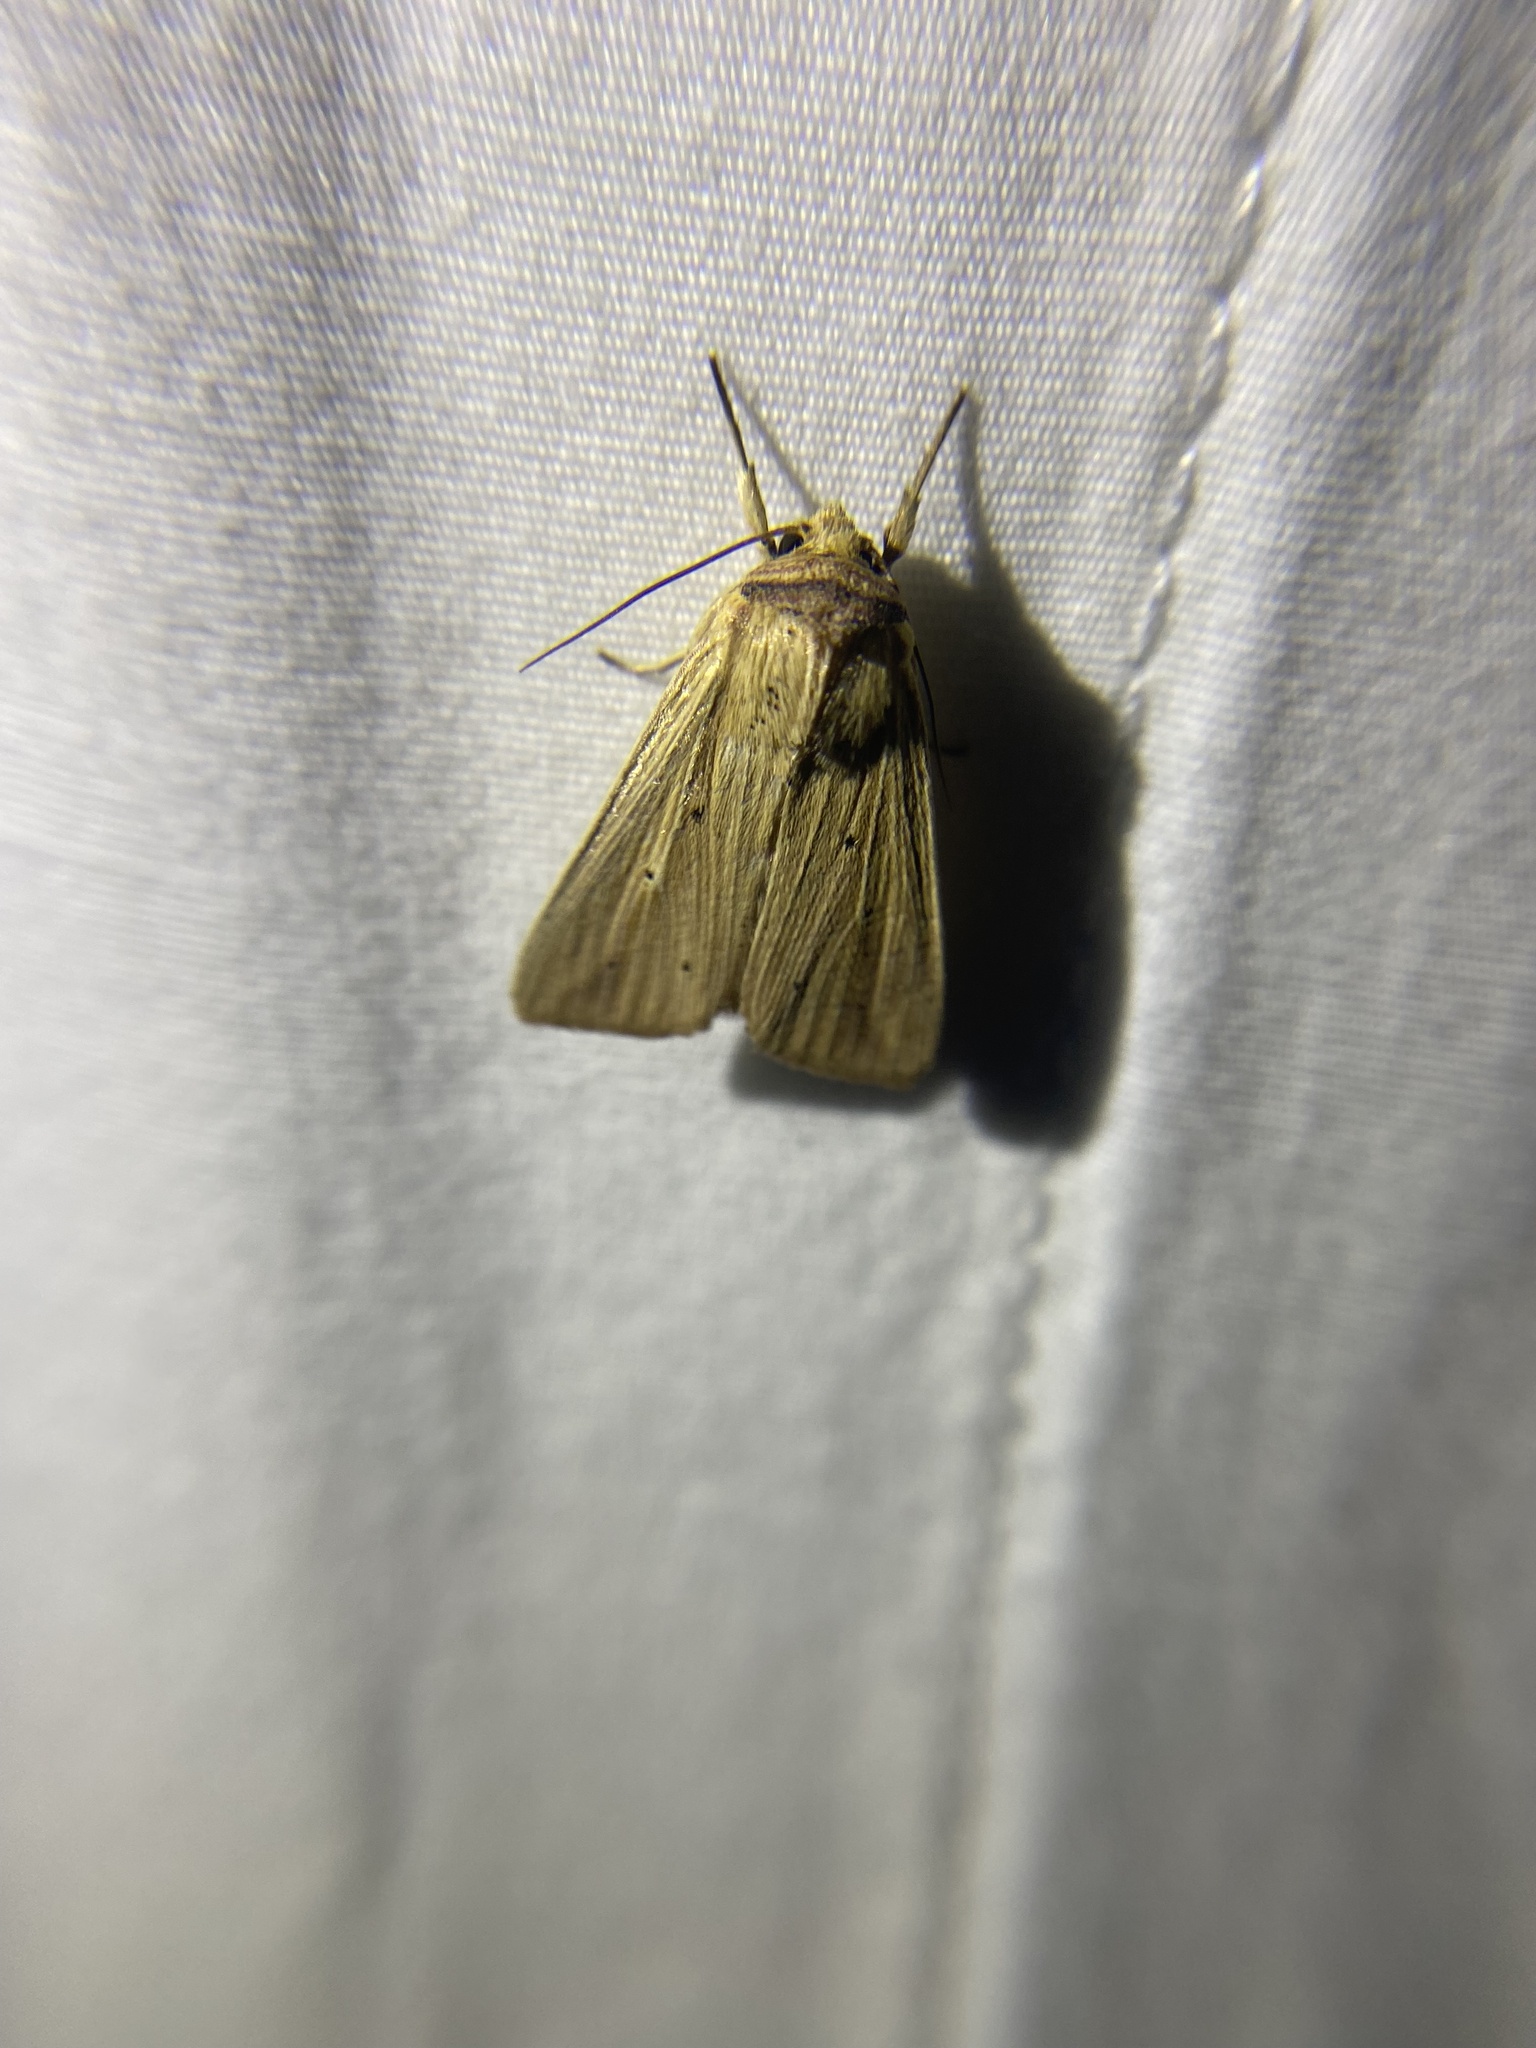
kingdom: Animalia
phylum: Arthropoda
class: Insecta
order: Lepidoptera
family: Noctuidae
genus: Leucania
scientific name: Leucania adjuta
